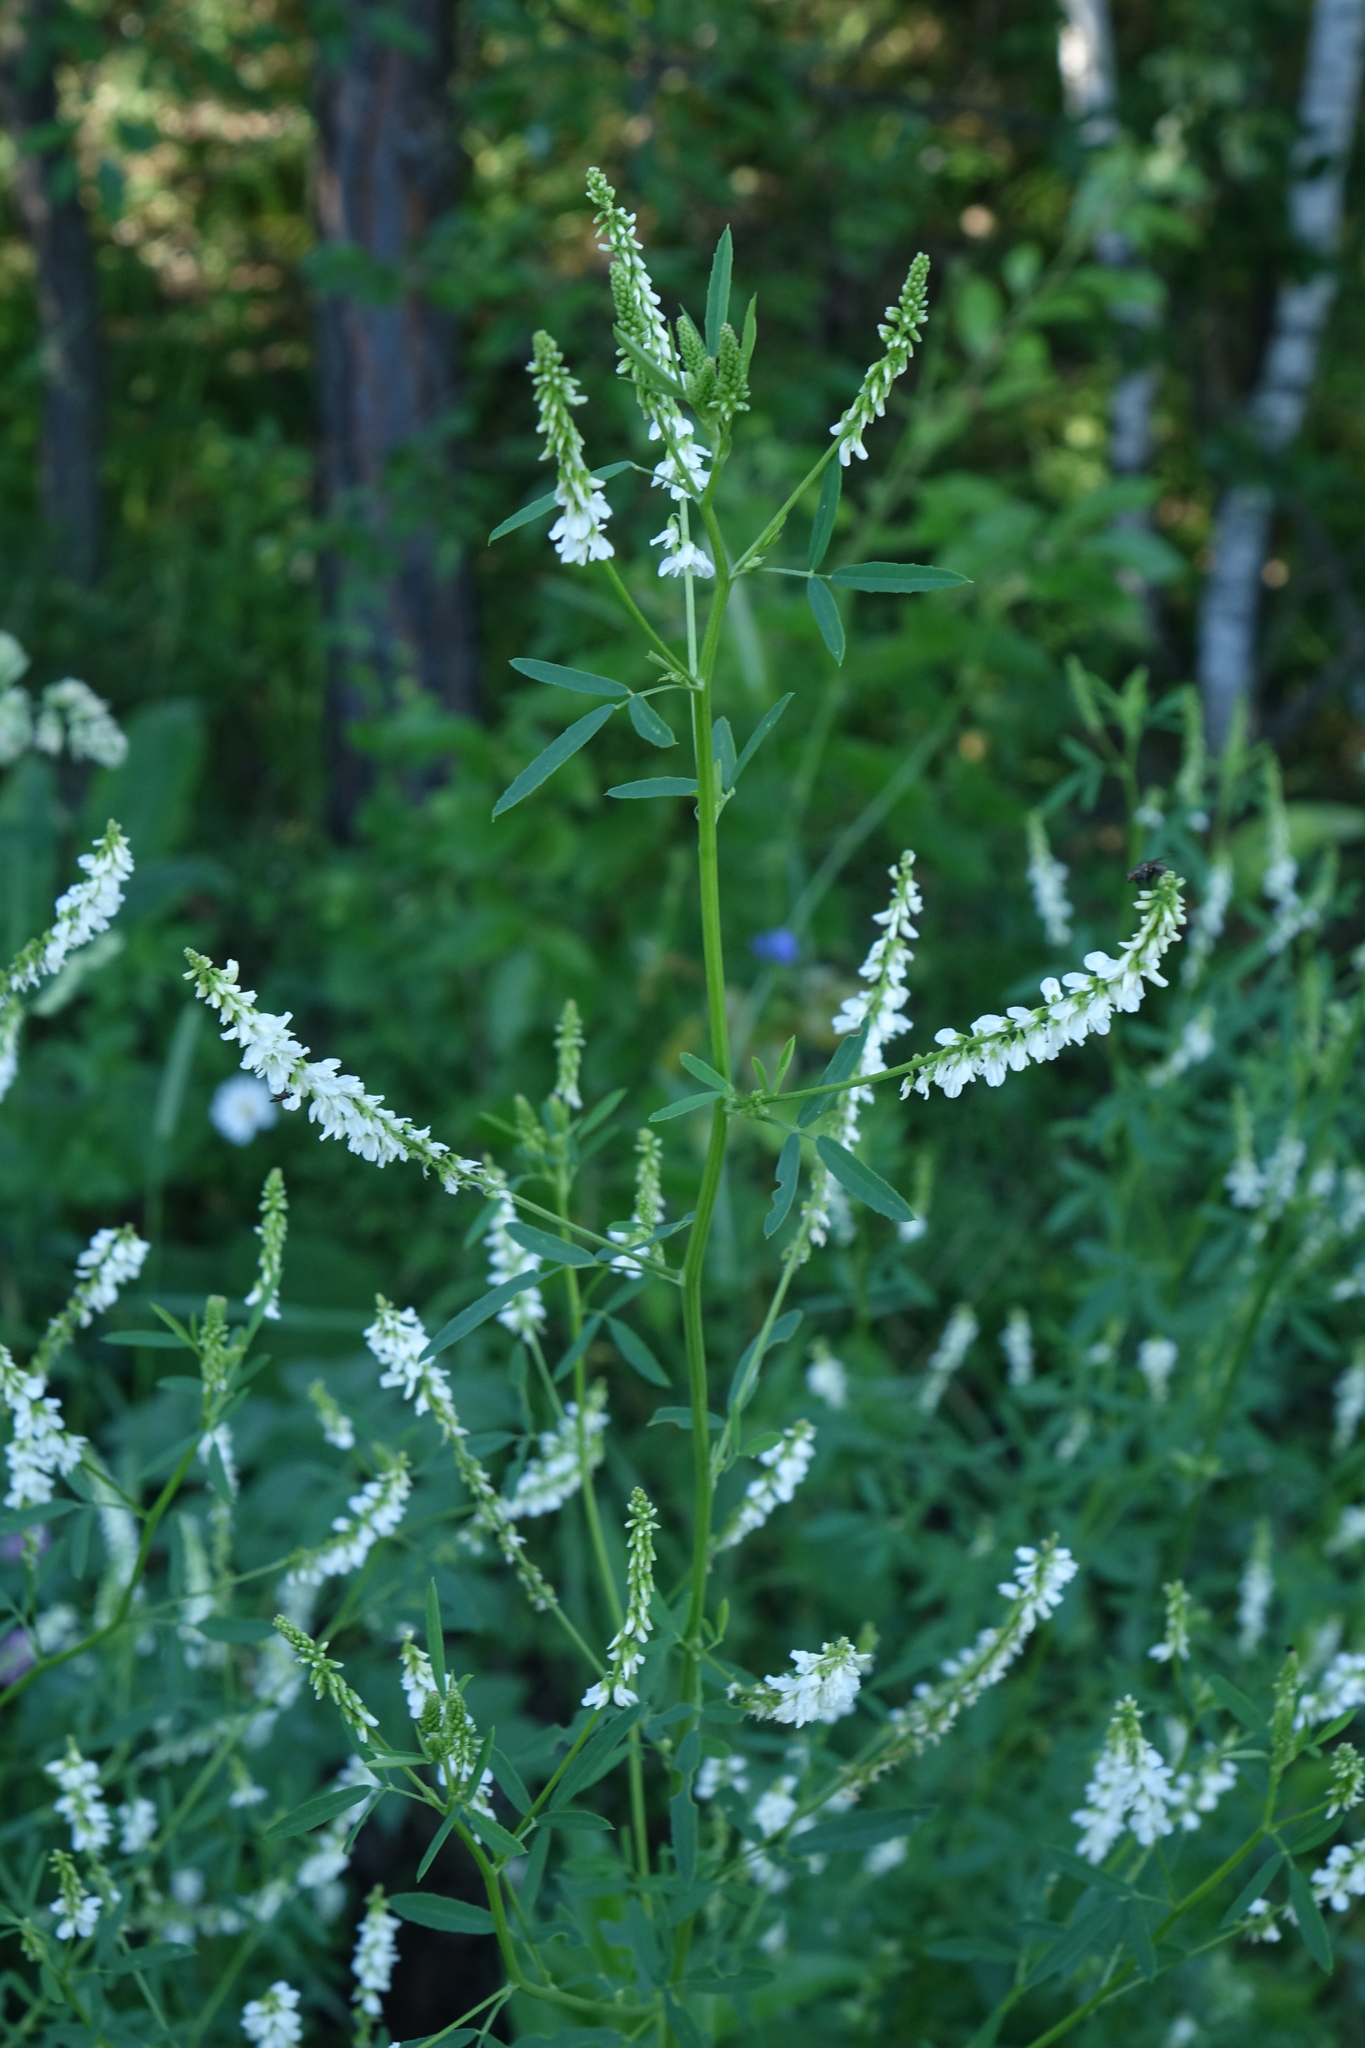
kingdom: Plantae
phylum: Tracheophyta
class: Magnoliopsida
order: Fabales
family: Fabaceae
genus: Melilotus
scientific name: Melilotus albus
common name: White melilot
